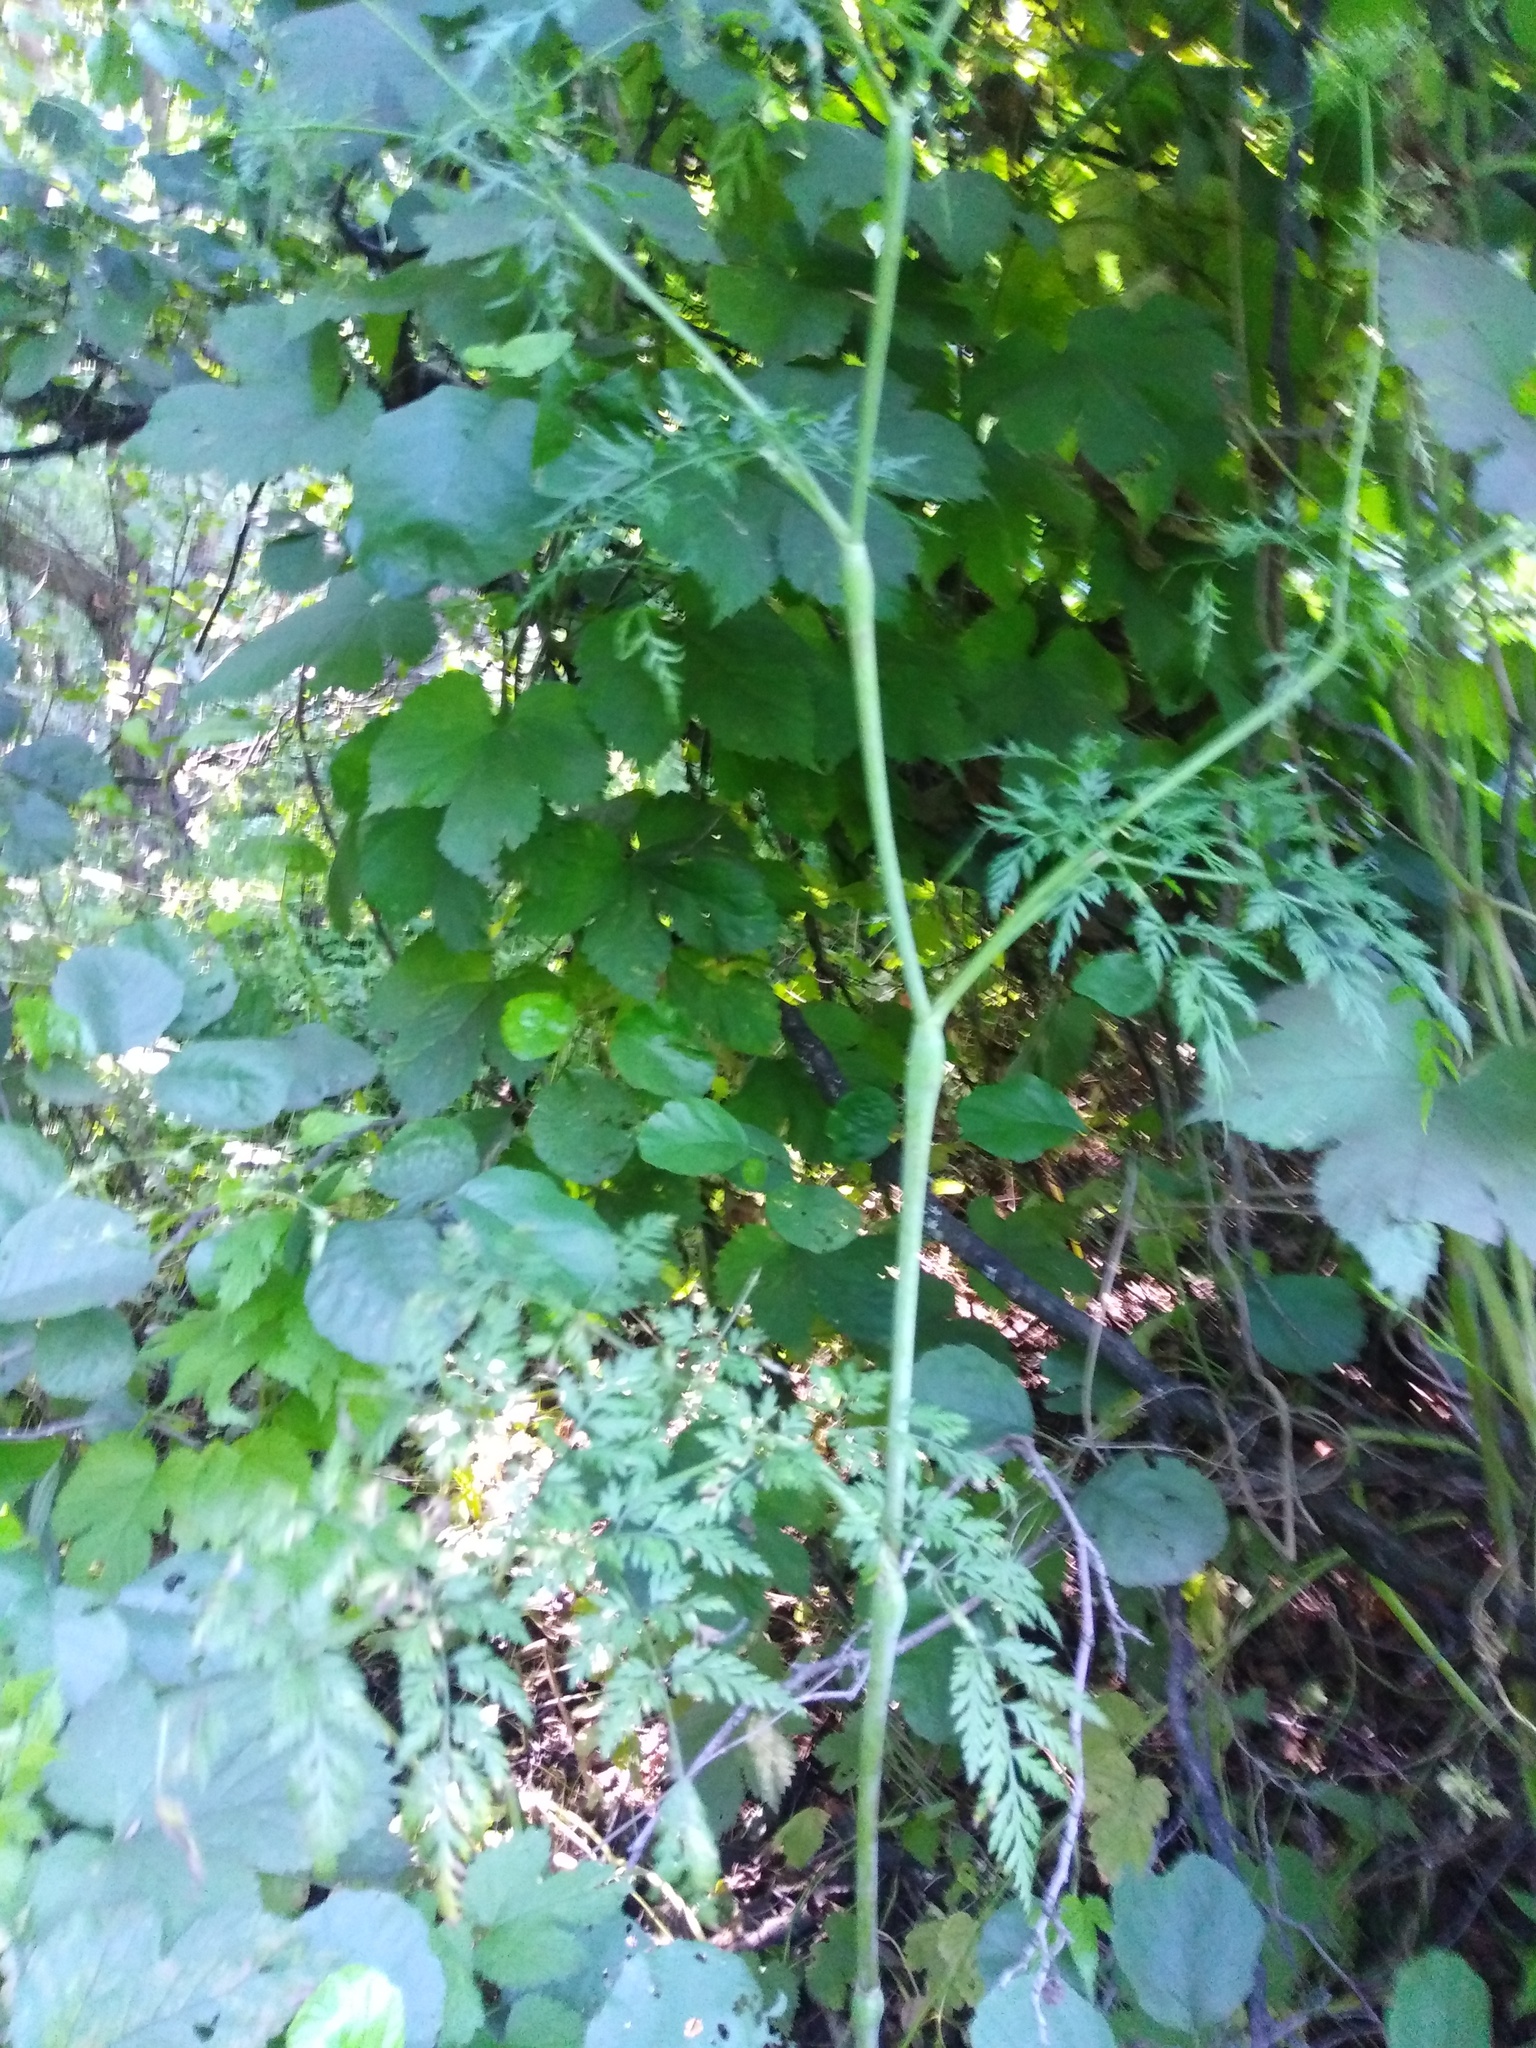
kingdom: Plantae
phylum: Tracheophyta
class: Magnoliopsida
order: Apiales
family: Apiaceae
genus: Chaerophyllum
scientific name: Chaerophyllum bulbosum
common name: Bulbous chervil
